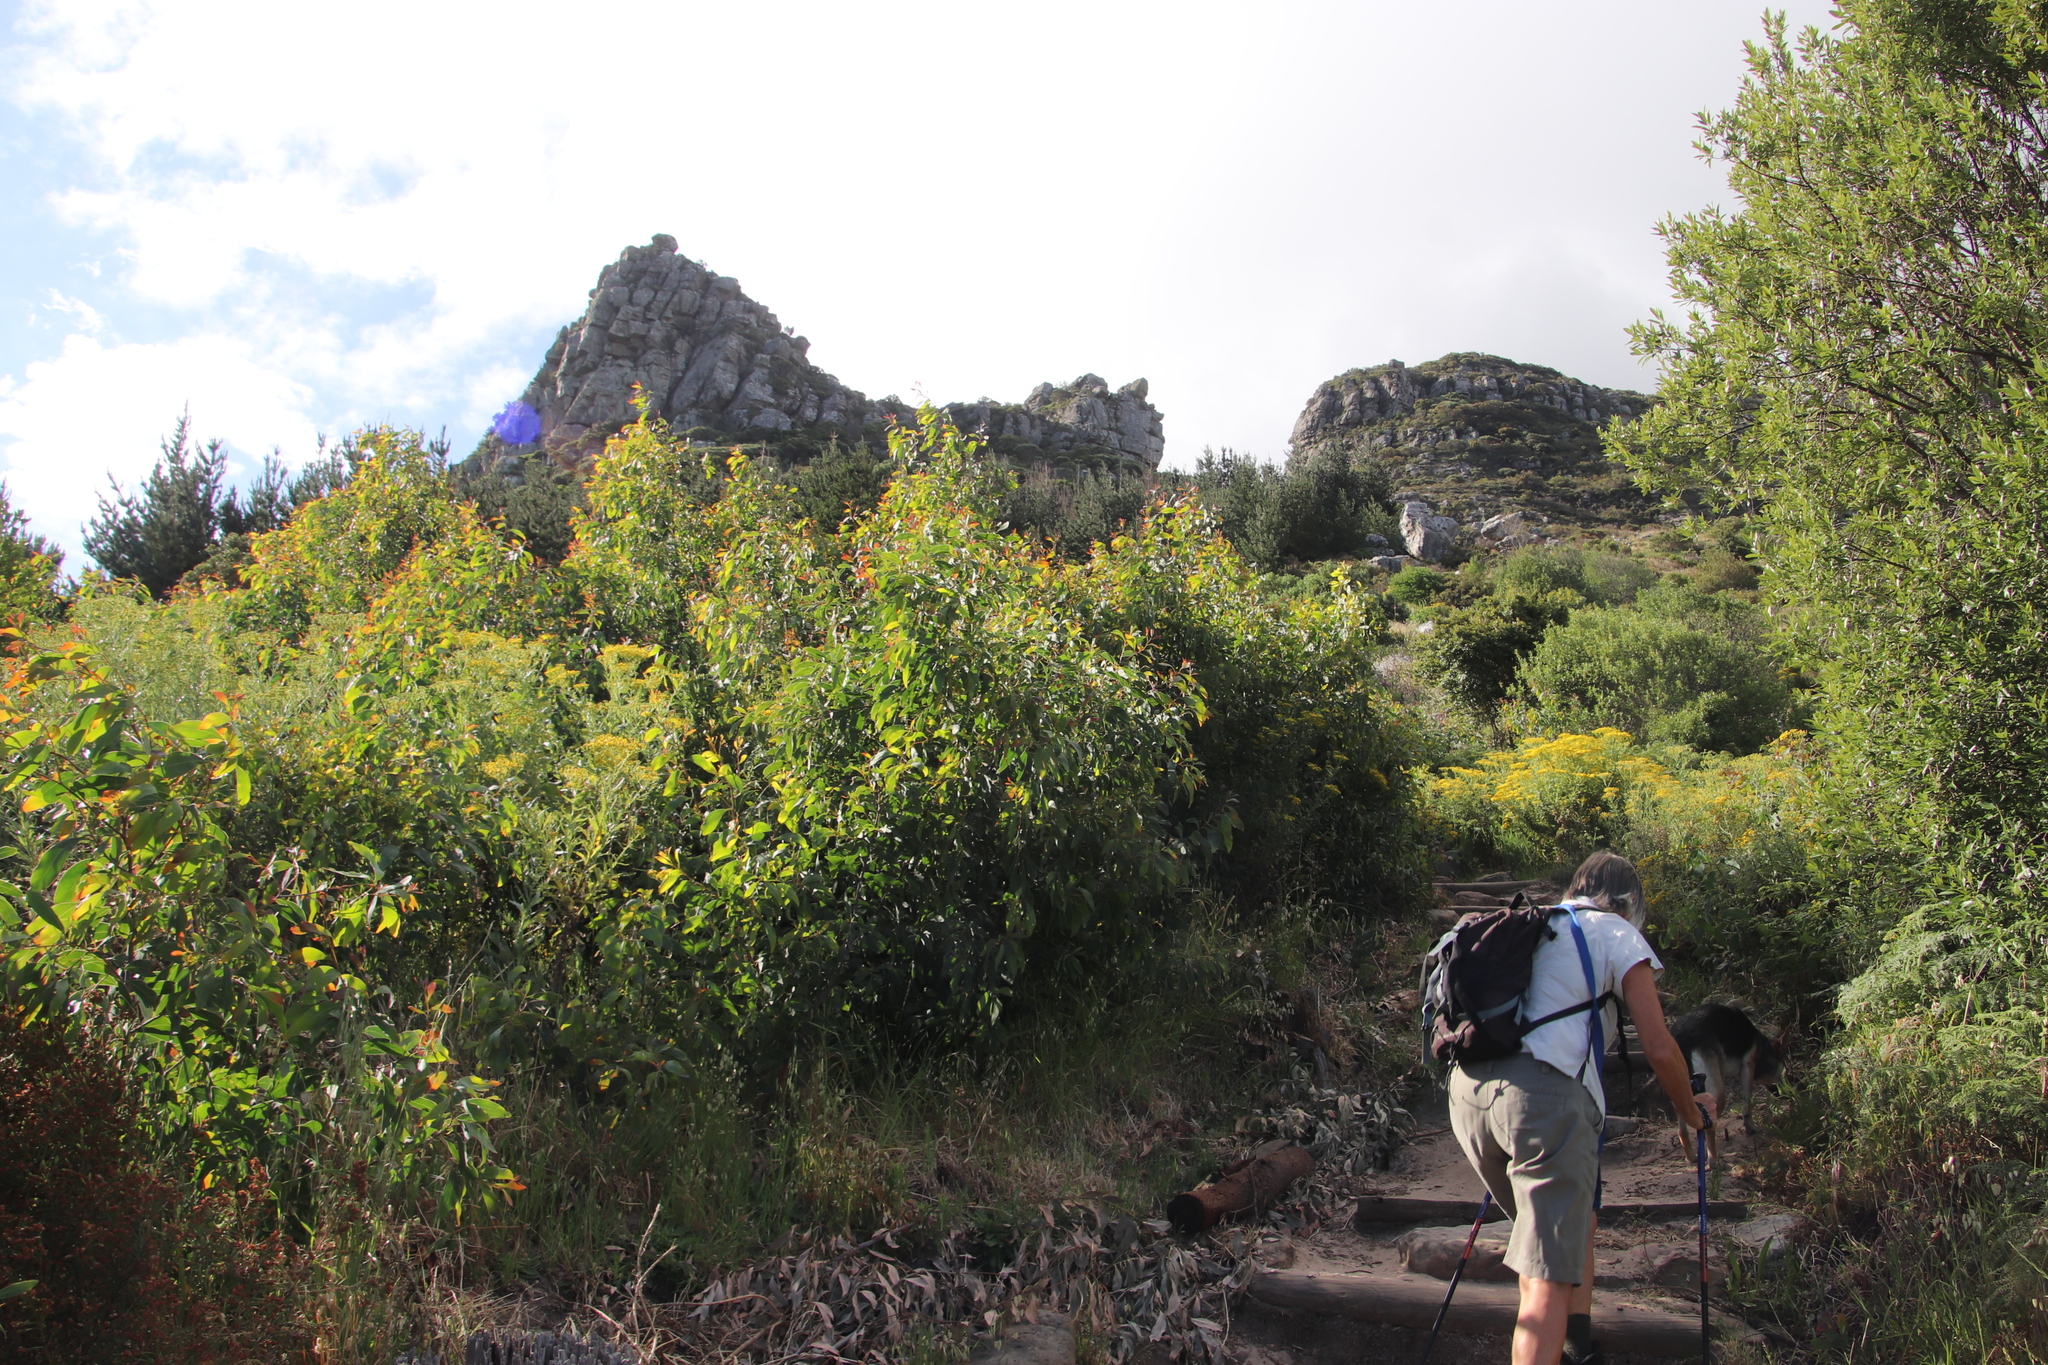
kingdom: Plantae
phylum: Tracheophyta
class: Magnoliopsida
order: Fabales
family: Fabaceae
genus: Acacia
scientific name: Acacia falciformis
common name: Tanning wattle
